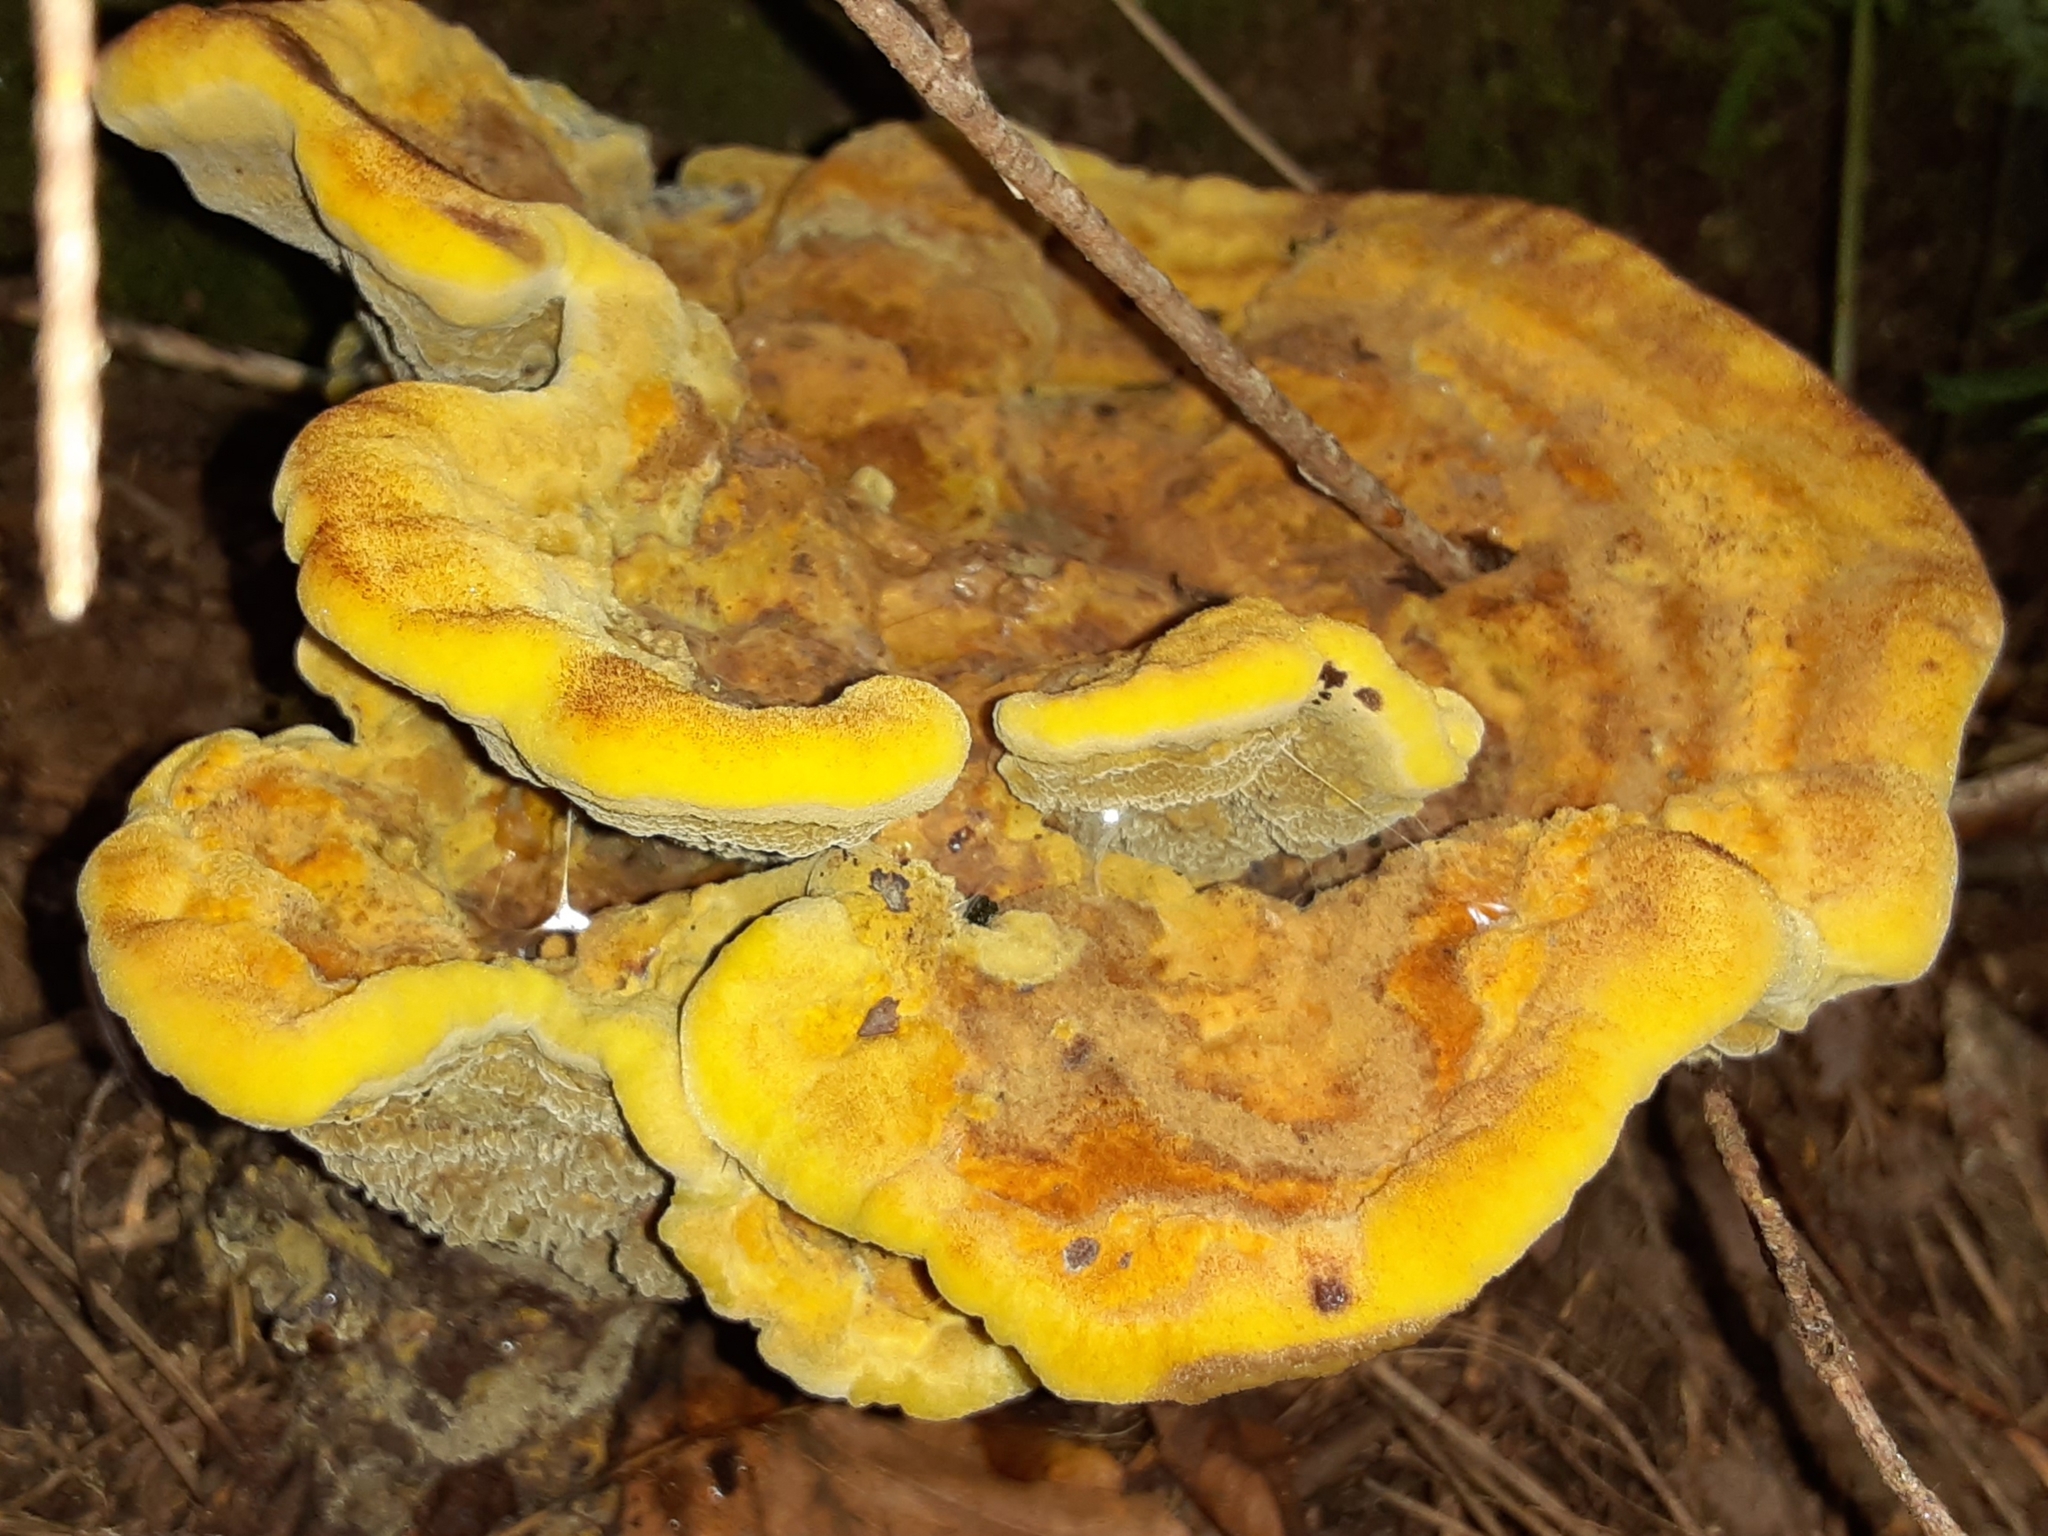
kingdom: Fungi
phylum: Basidiomycota
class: Agaricomycetes
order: Polyporales
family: Laetiporaceae
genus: Phaeolus
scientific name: Phaeolus schweinitzii
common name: Dyer's mazegill
